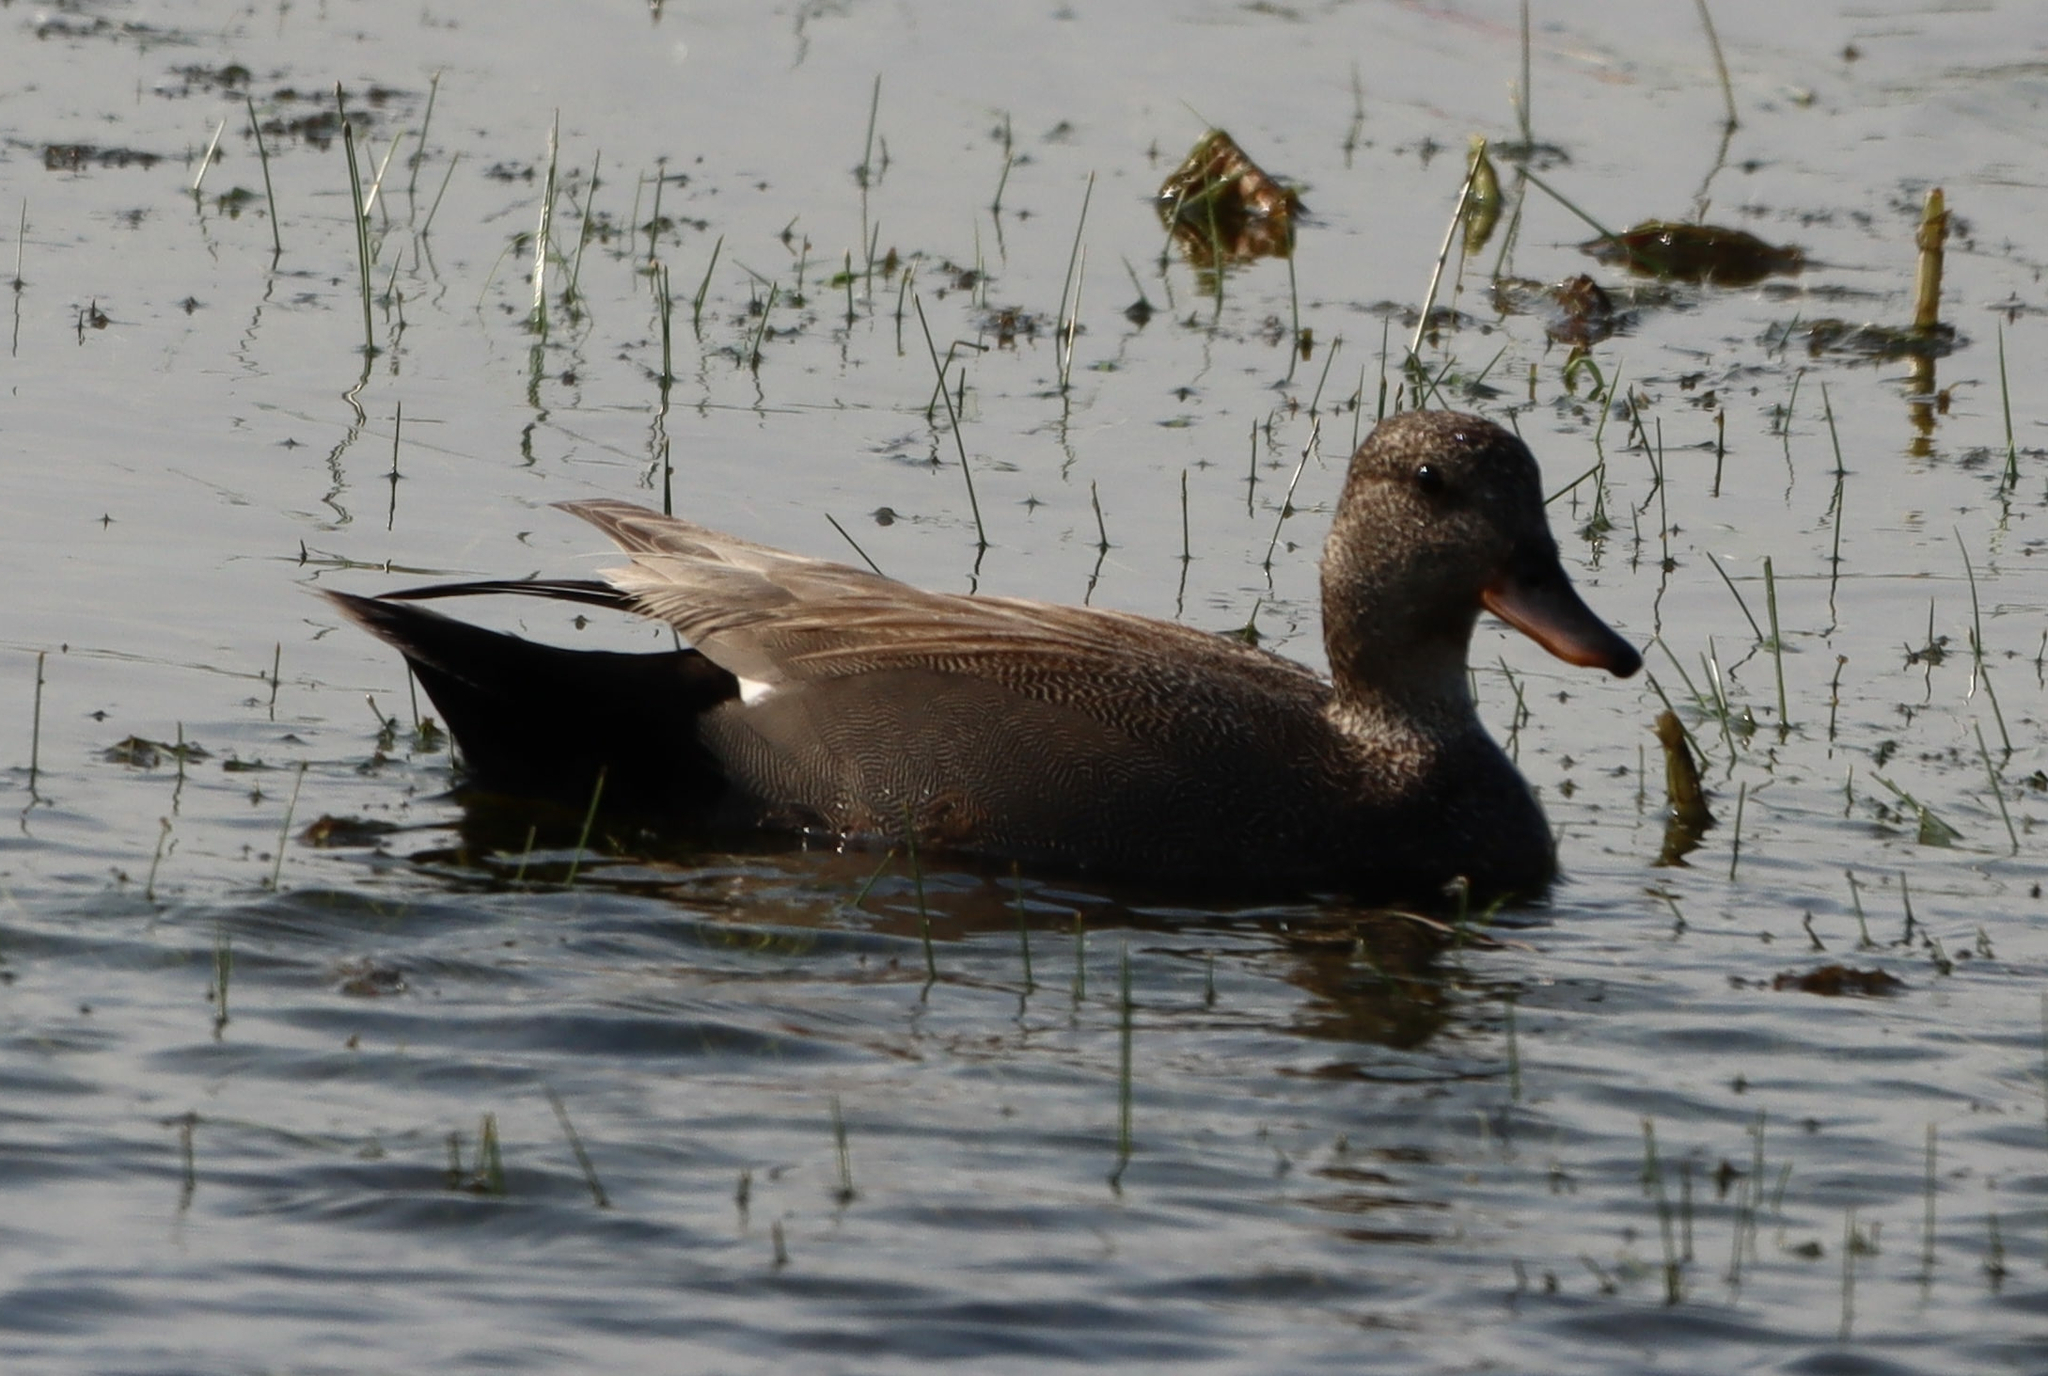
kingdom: Animalia
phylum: Chordata
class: Aves
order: Anseriformes
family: Anatidae
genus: Mareca
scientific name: Mareca strepera
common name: Gadwall
